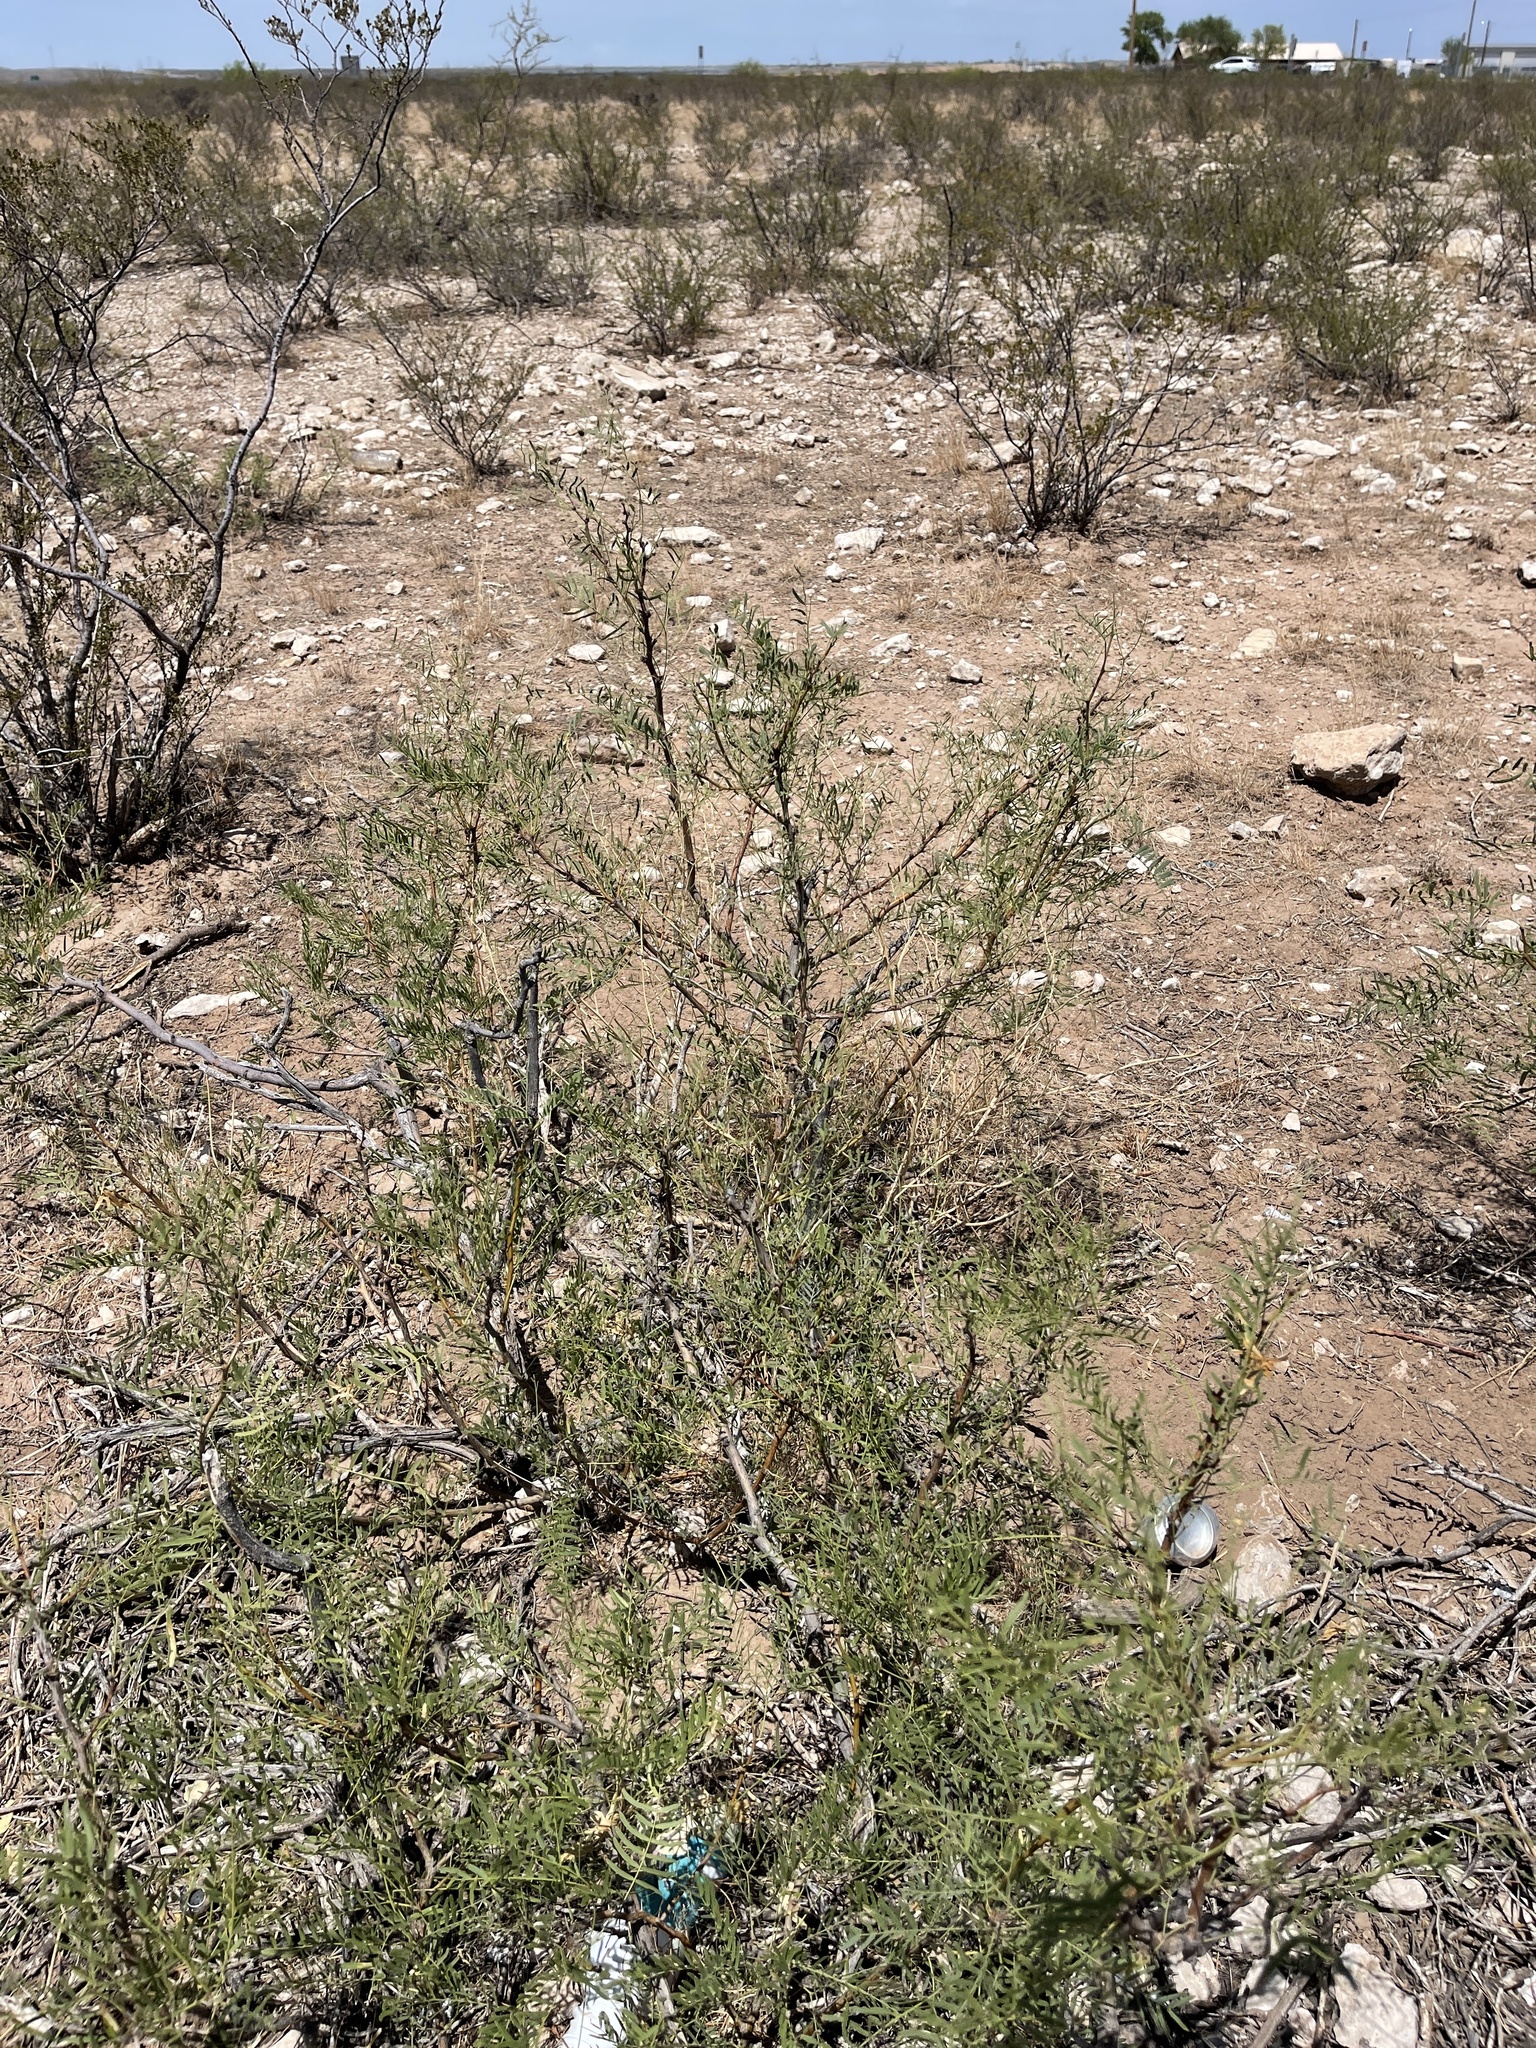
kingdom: Plantae
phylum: Tracheophyta
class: Magnoliopsida
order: Fabales
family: Fabaceae
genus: Prosopis
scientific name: Prosopis glandulosa
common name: Honey mesquite
